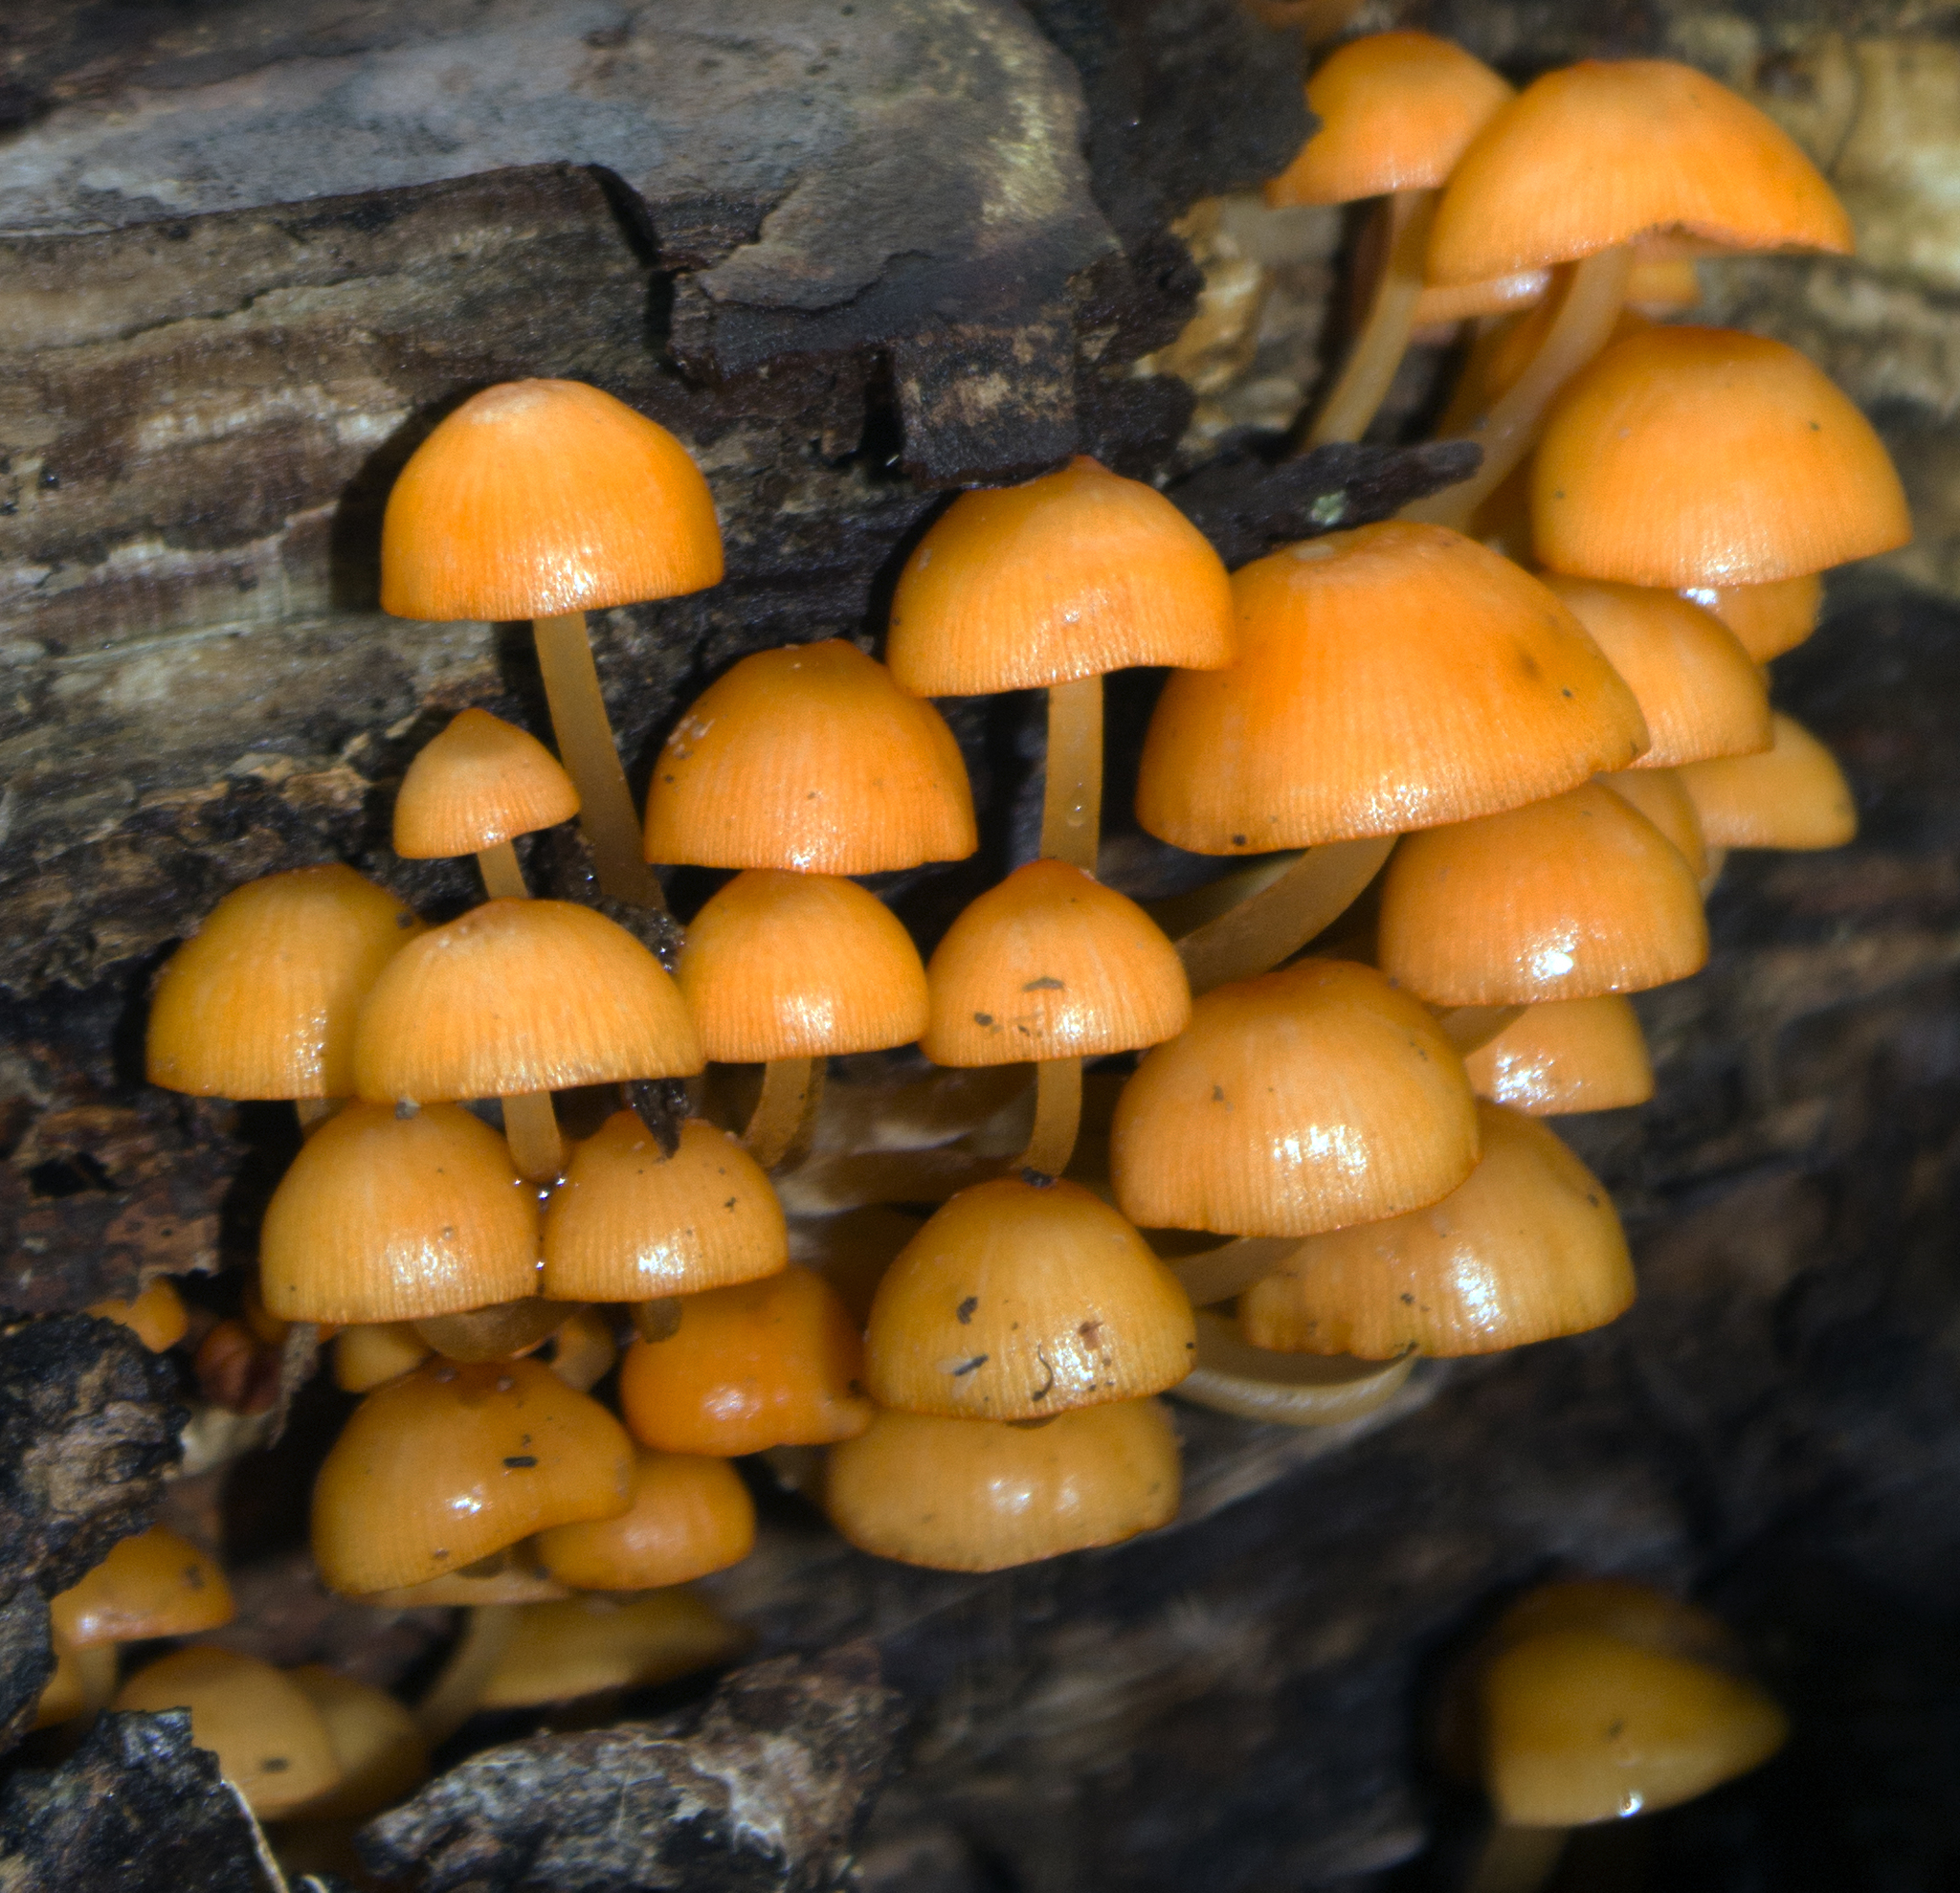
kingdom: Fungi
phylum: Basidiomycota
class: Agaricomycetes
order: Agaricales
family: Mycenaceae
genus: Mycena
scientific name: Mycena leaiana
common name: Orange mycena
